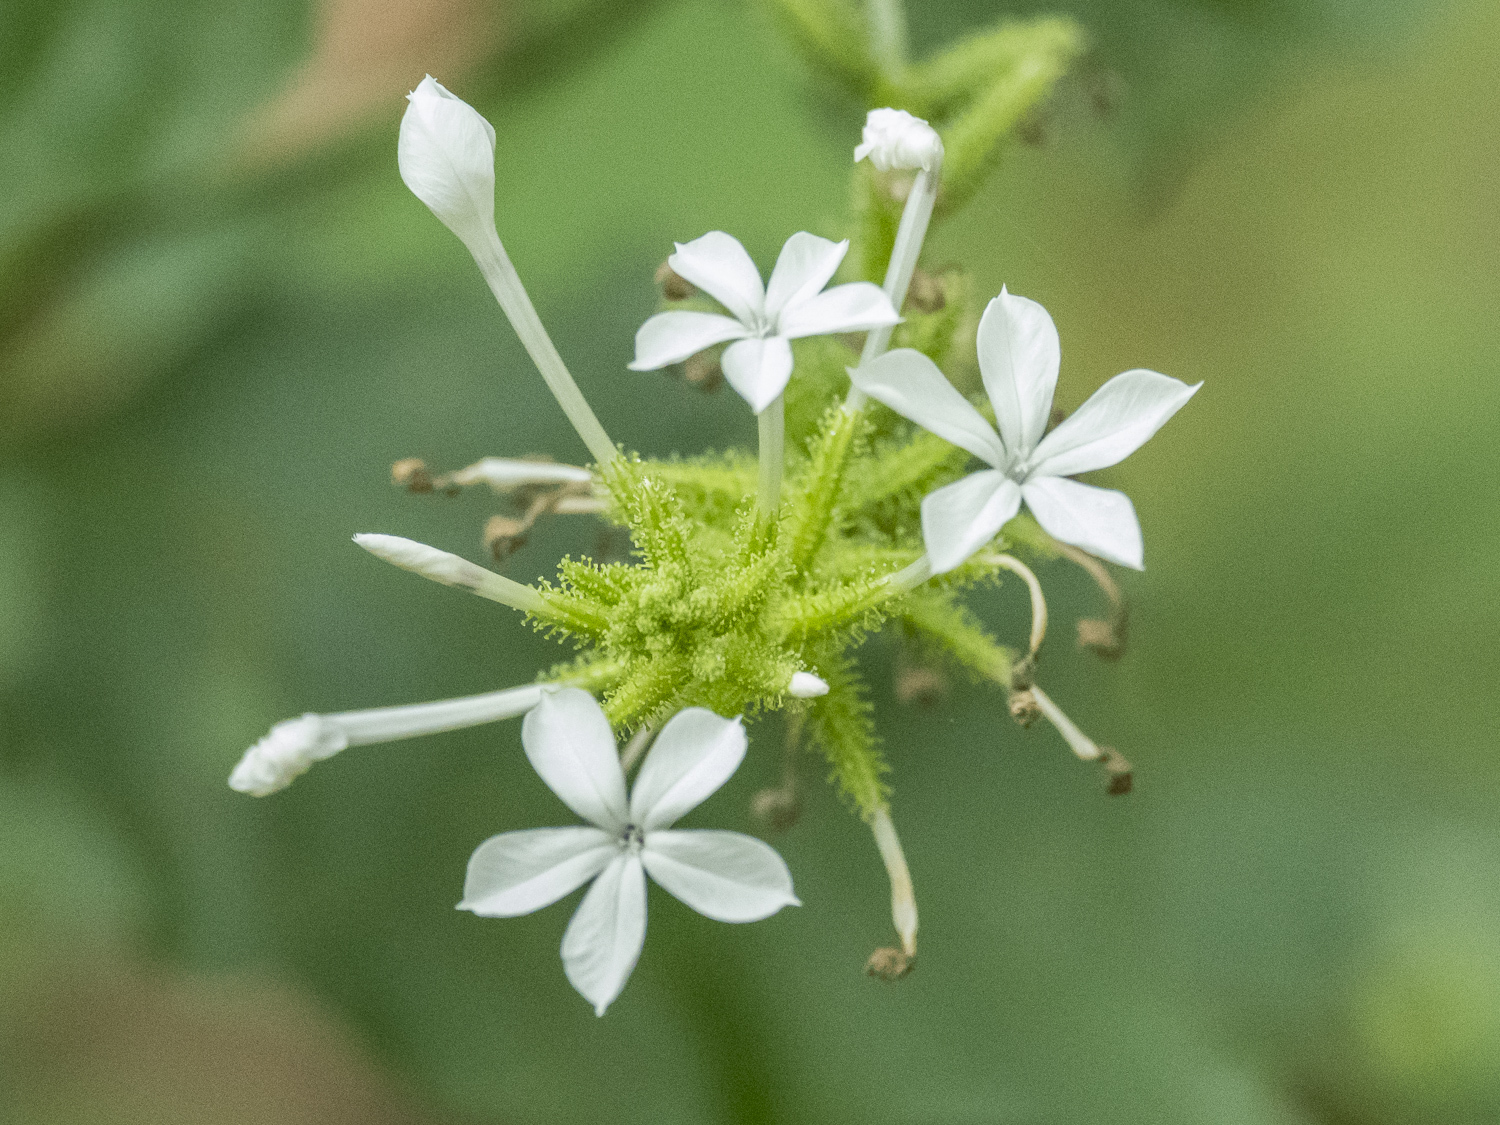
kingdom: Plantae
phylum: Tracheophyta
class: Magnoliopsida
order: Caryophyllales
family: Plumbaginaceae
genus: Plumbago
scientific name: Plumbago zeylanica
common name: Doctorbush
